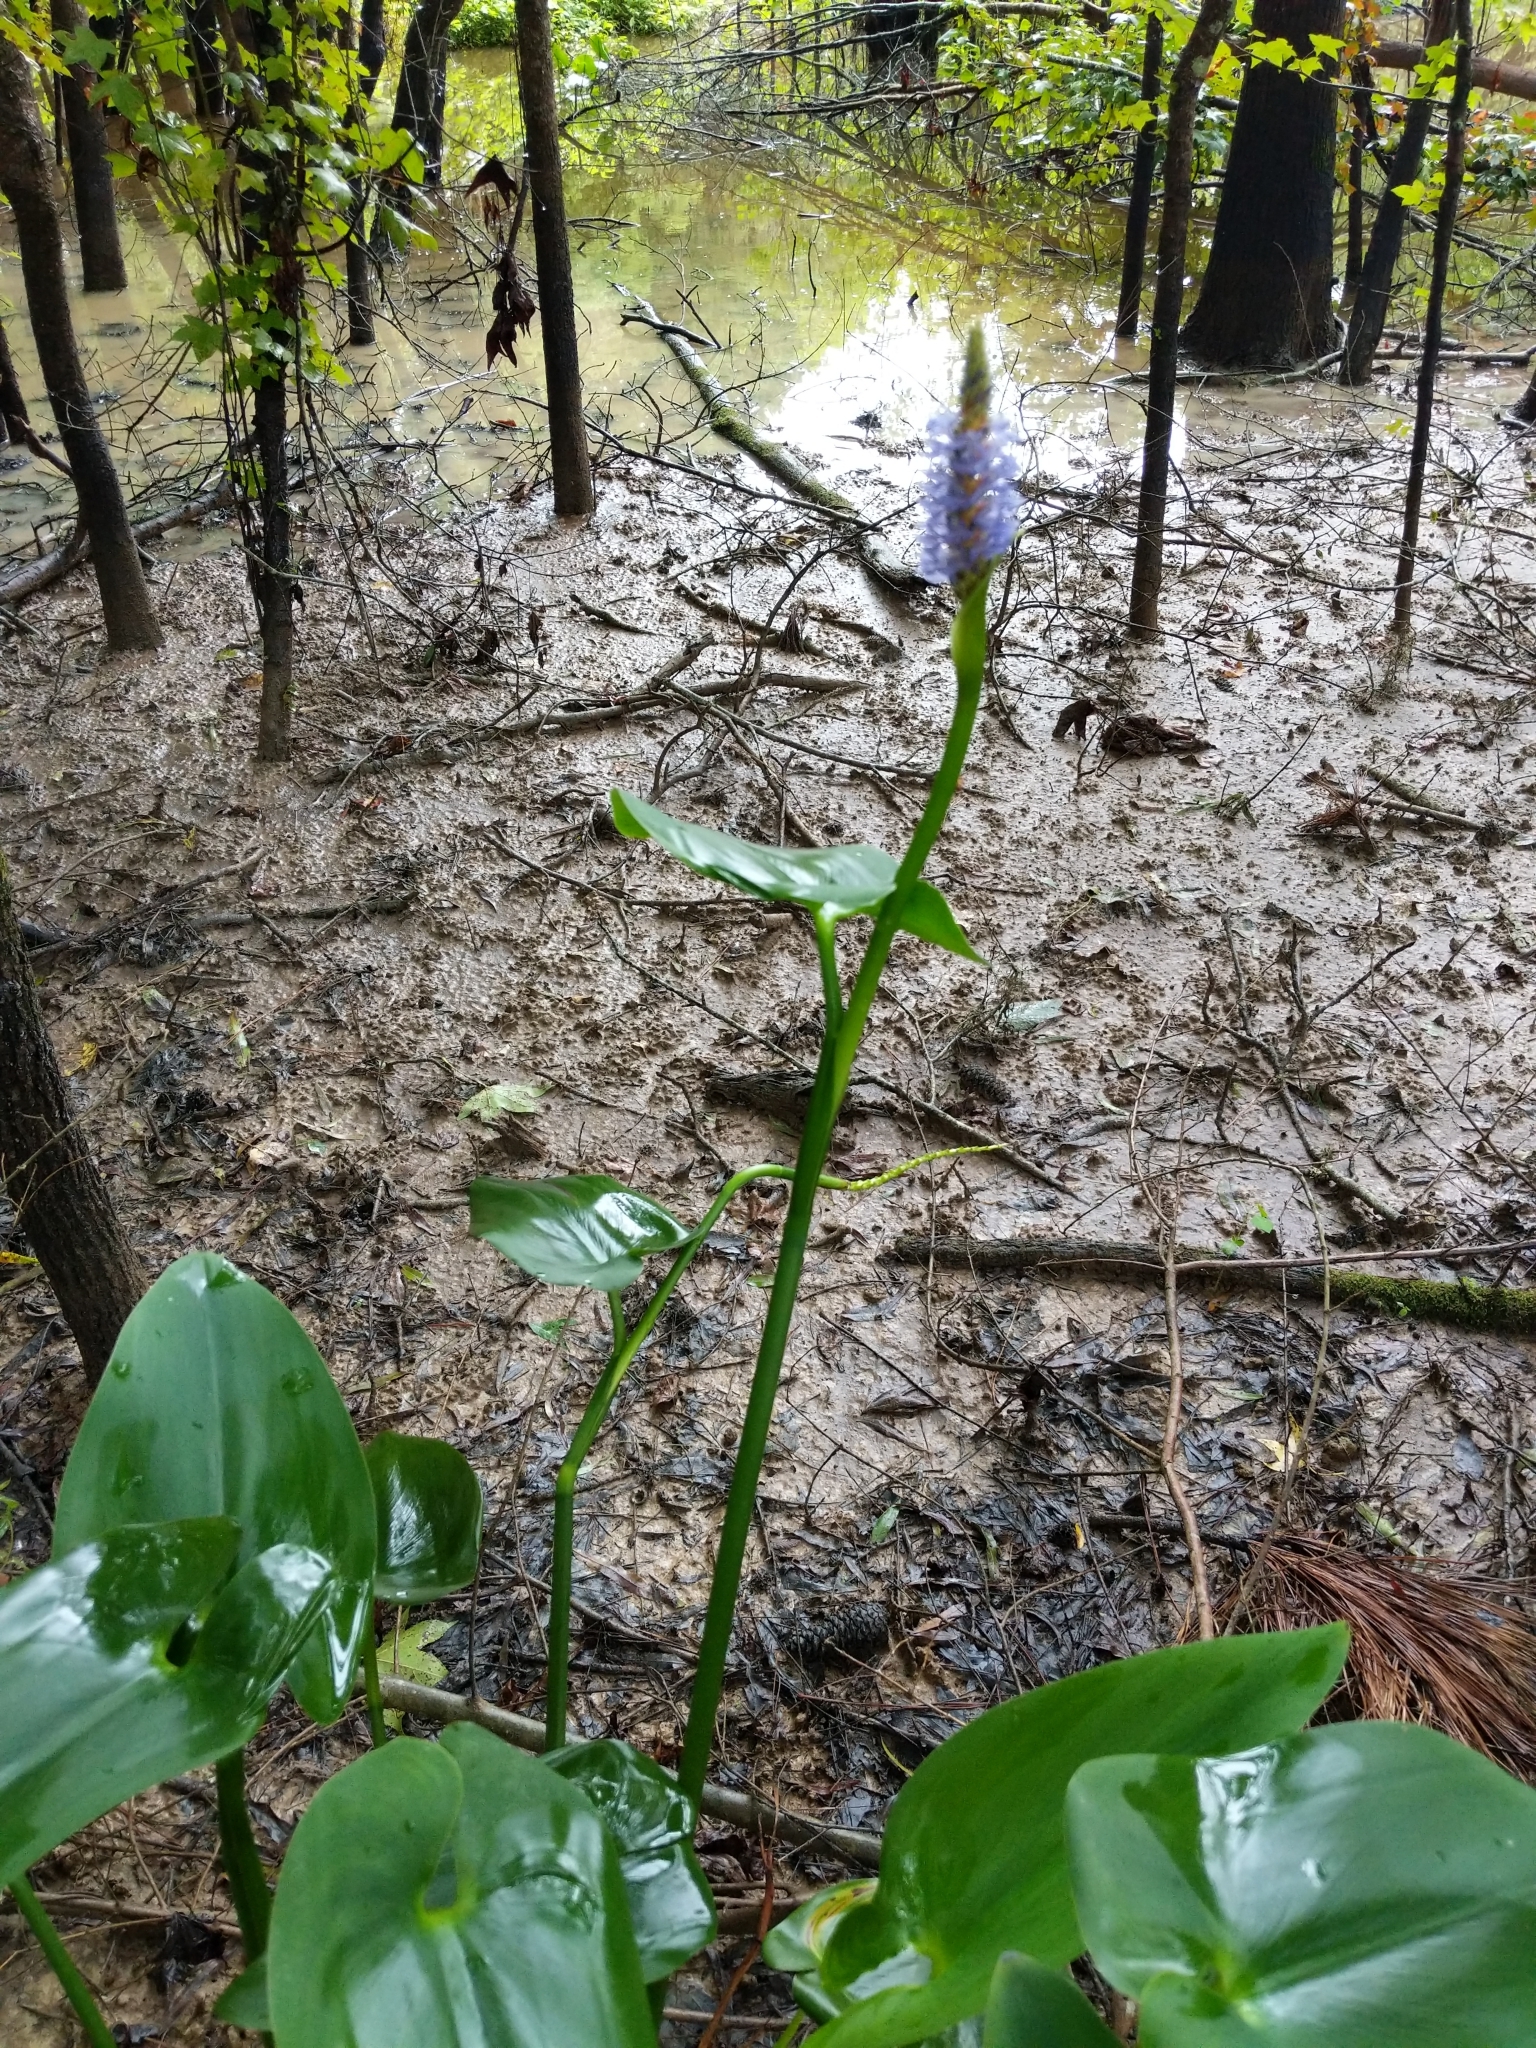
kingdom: Plantae
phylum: Tracheophyta
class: Liliopsida
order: Commelinales
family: Pontederiaceae
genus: Pontederia
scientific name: Pontederia cordata
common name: Pickerelweed
